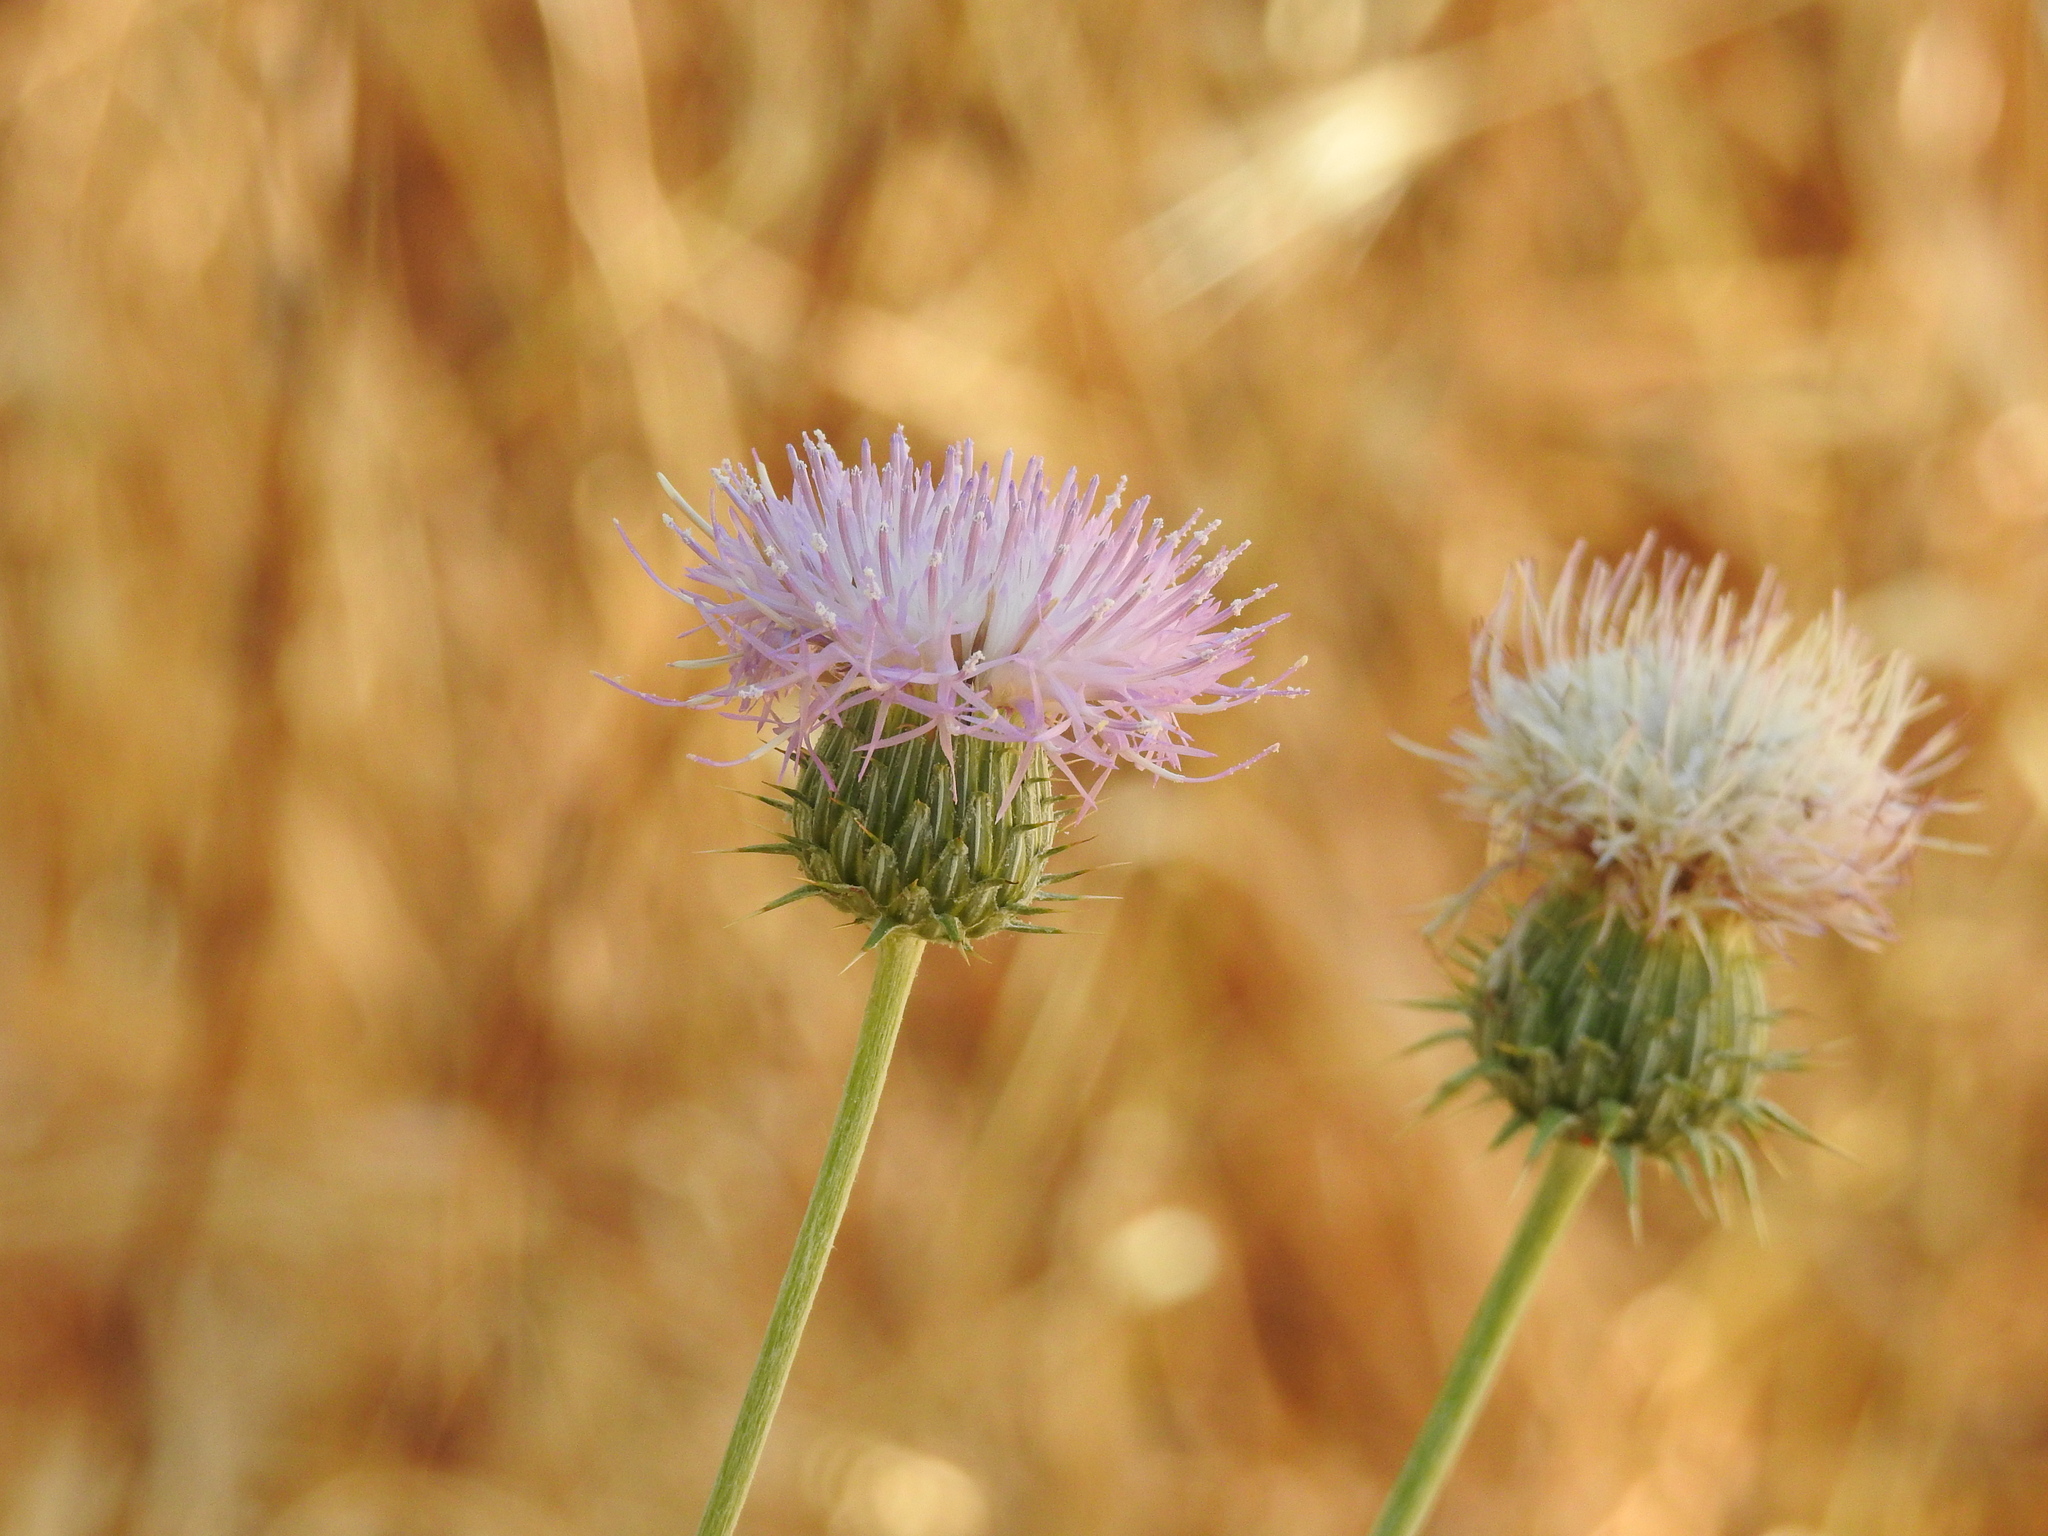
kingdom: Plantae
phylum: Tracheophyta
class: Magnoliopsida
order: Asterales
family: Asteraceae
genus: Cirsium
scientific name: Cirsium neomexicanum
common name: New mexico thistle
